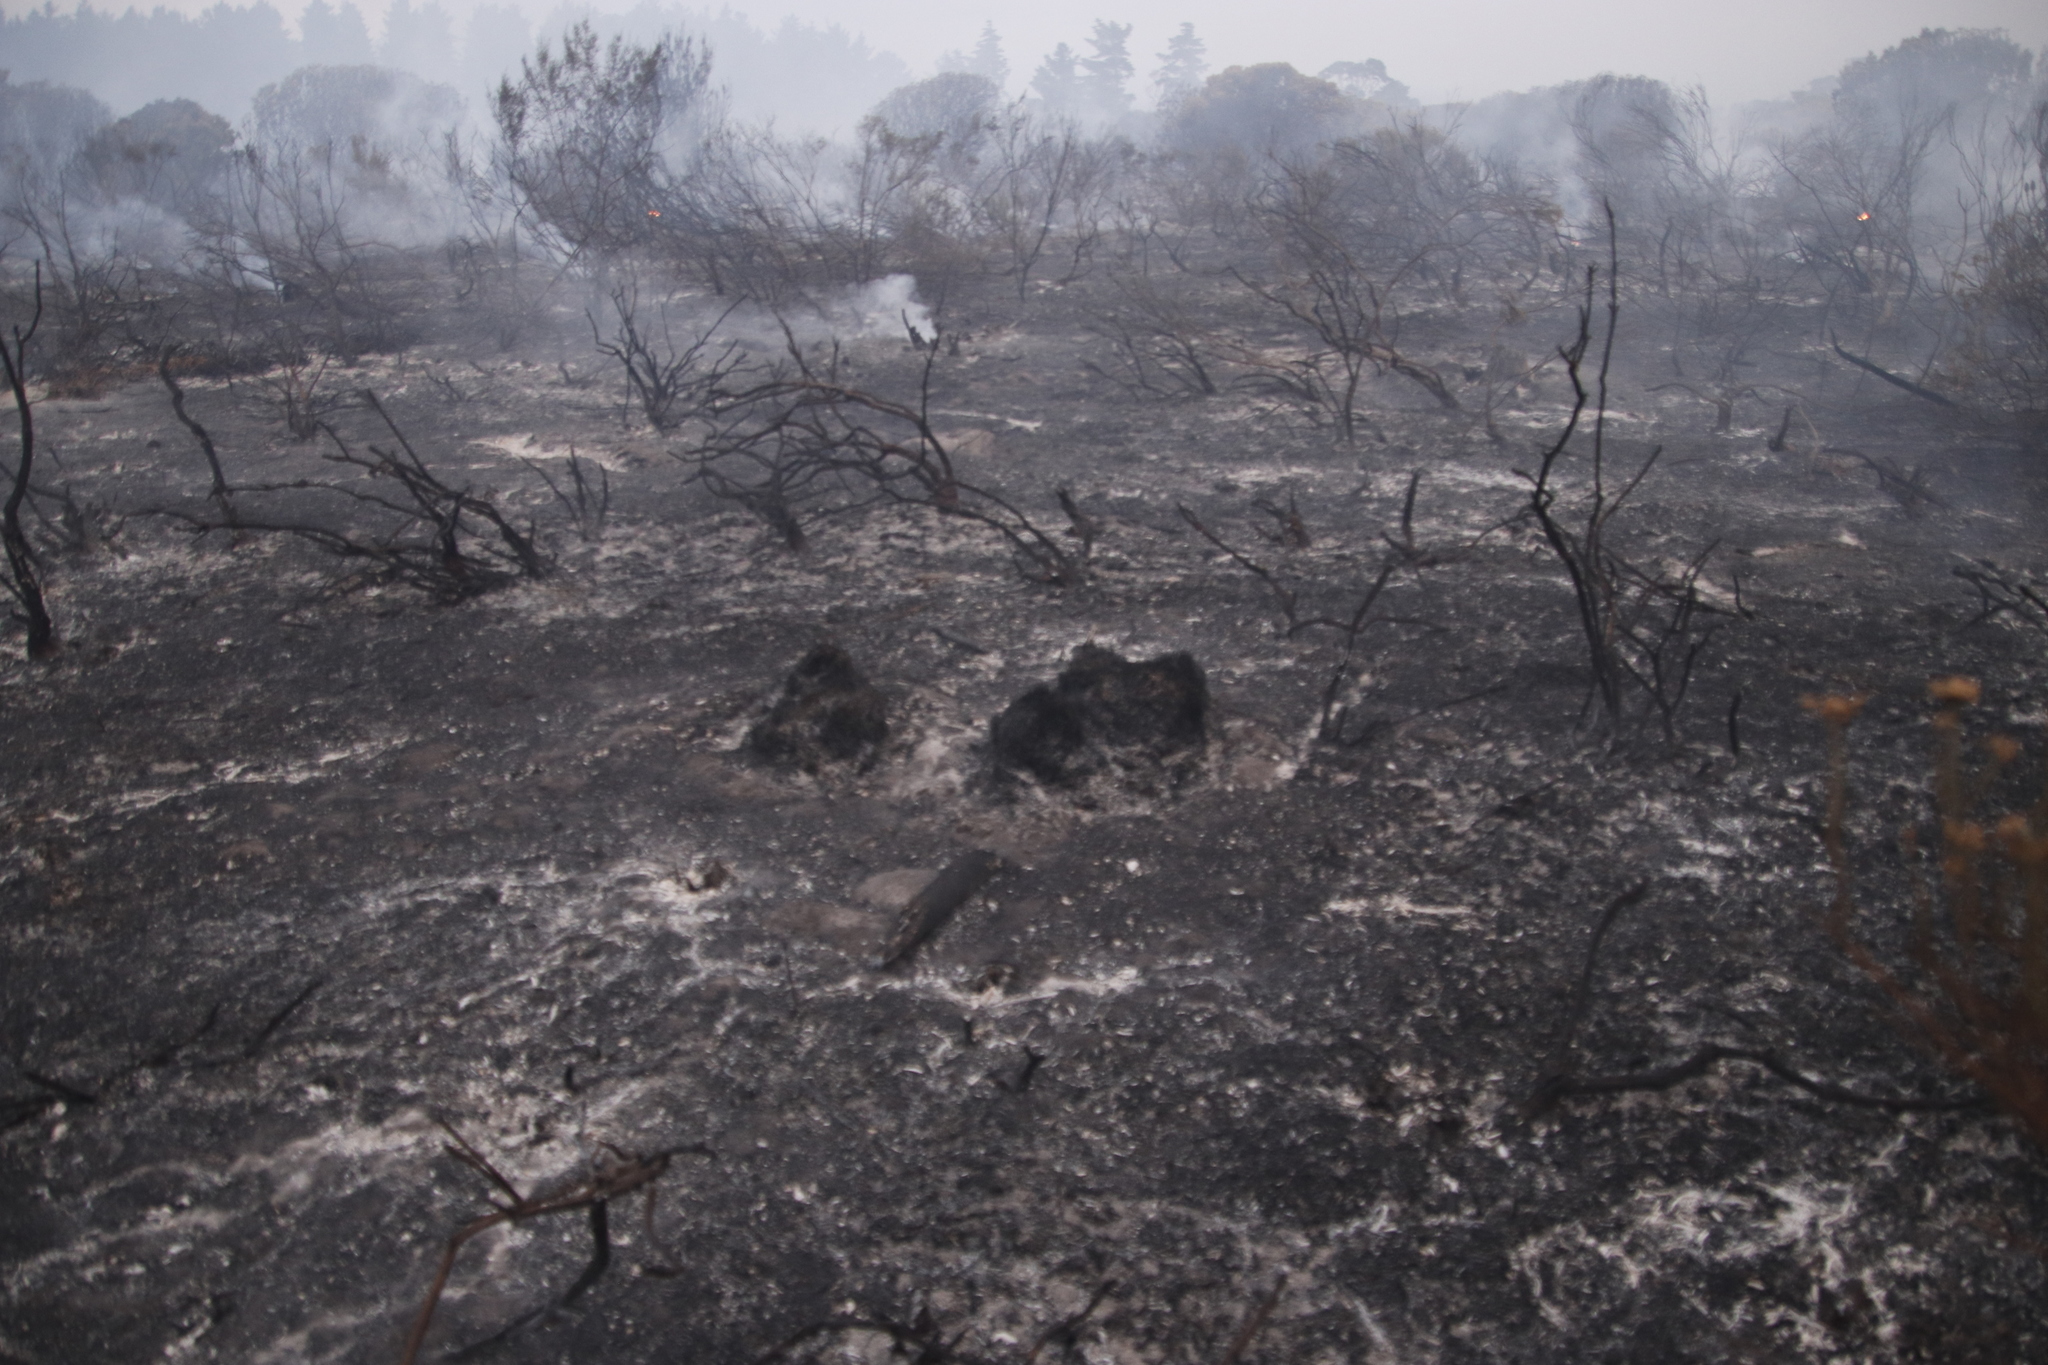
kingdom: Plantae
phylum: Tracheophyta
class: Liliopsida
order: Poales
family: Restionaceae
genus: Staberoha
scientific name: Staberoha distachyos
